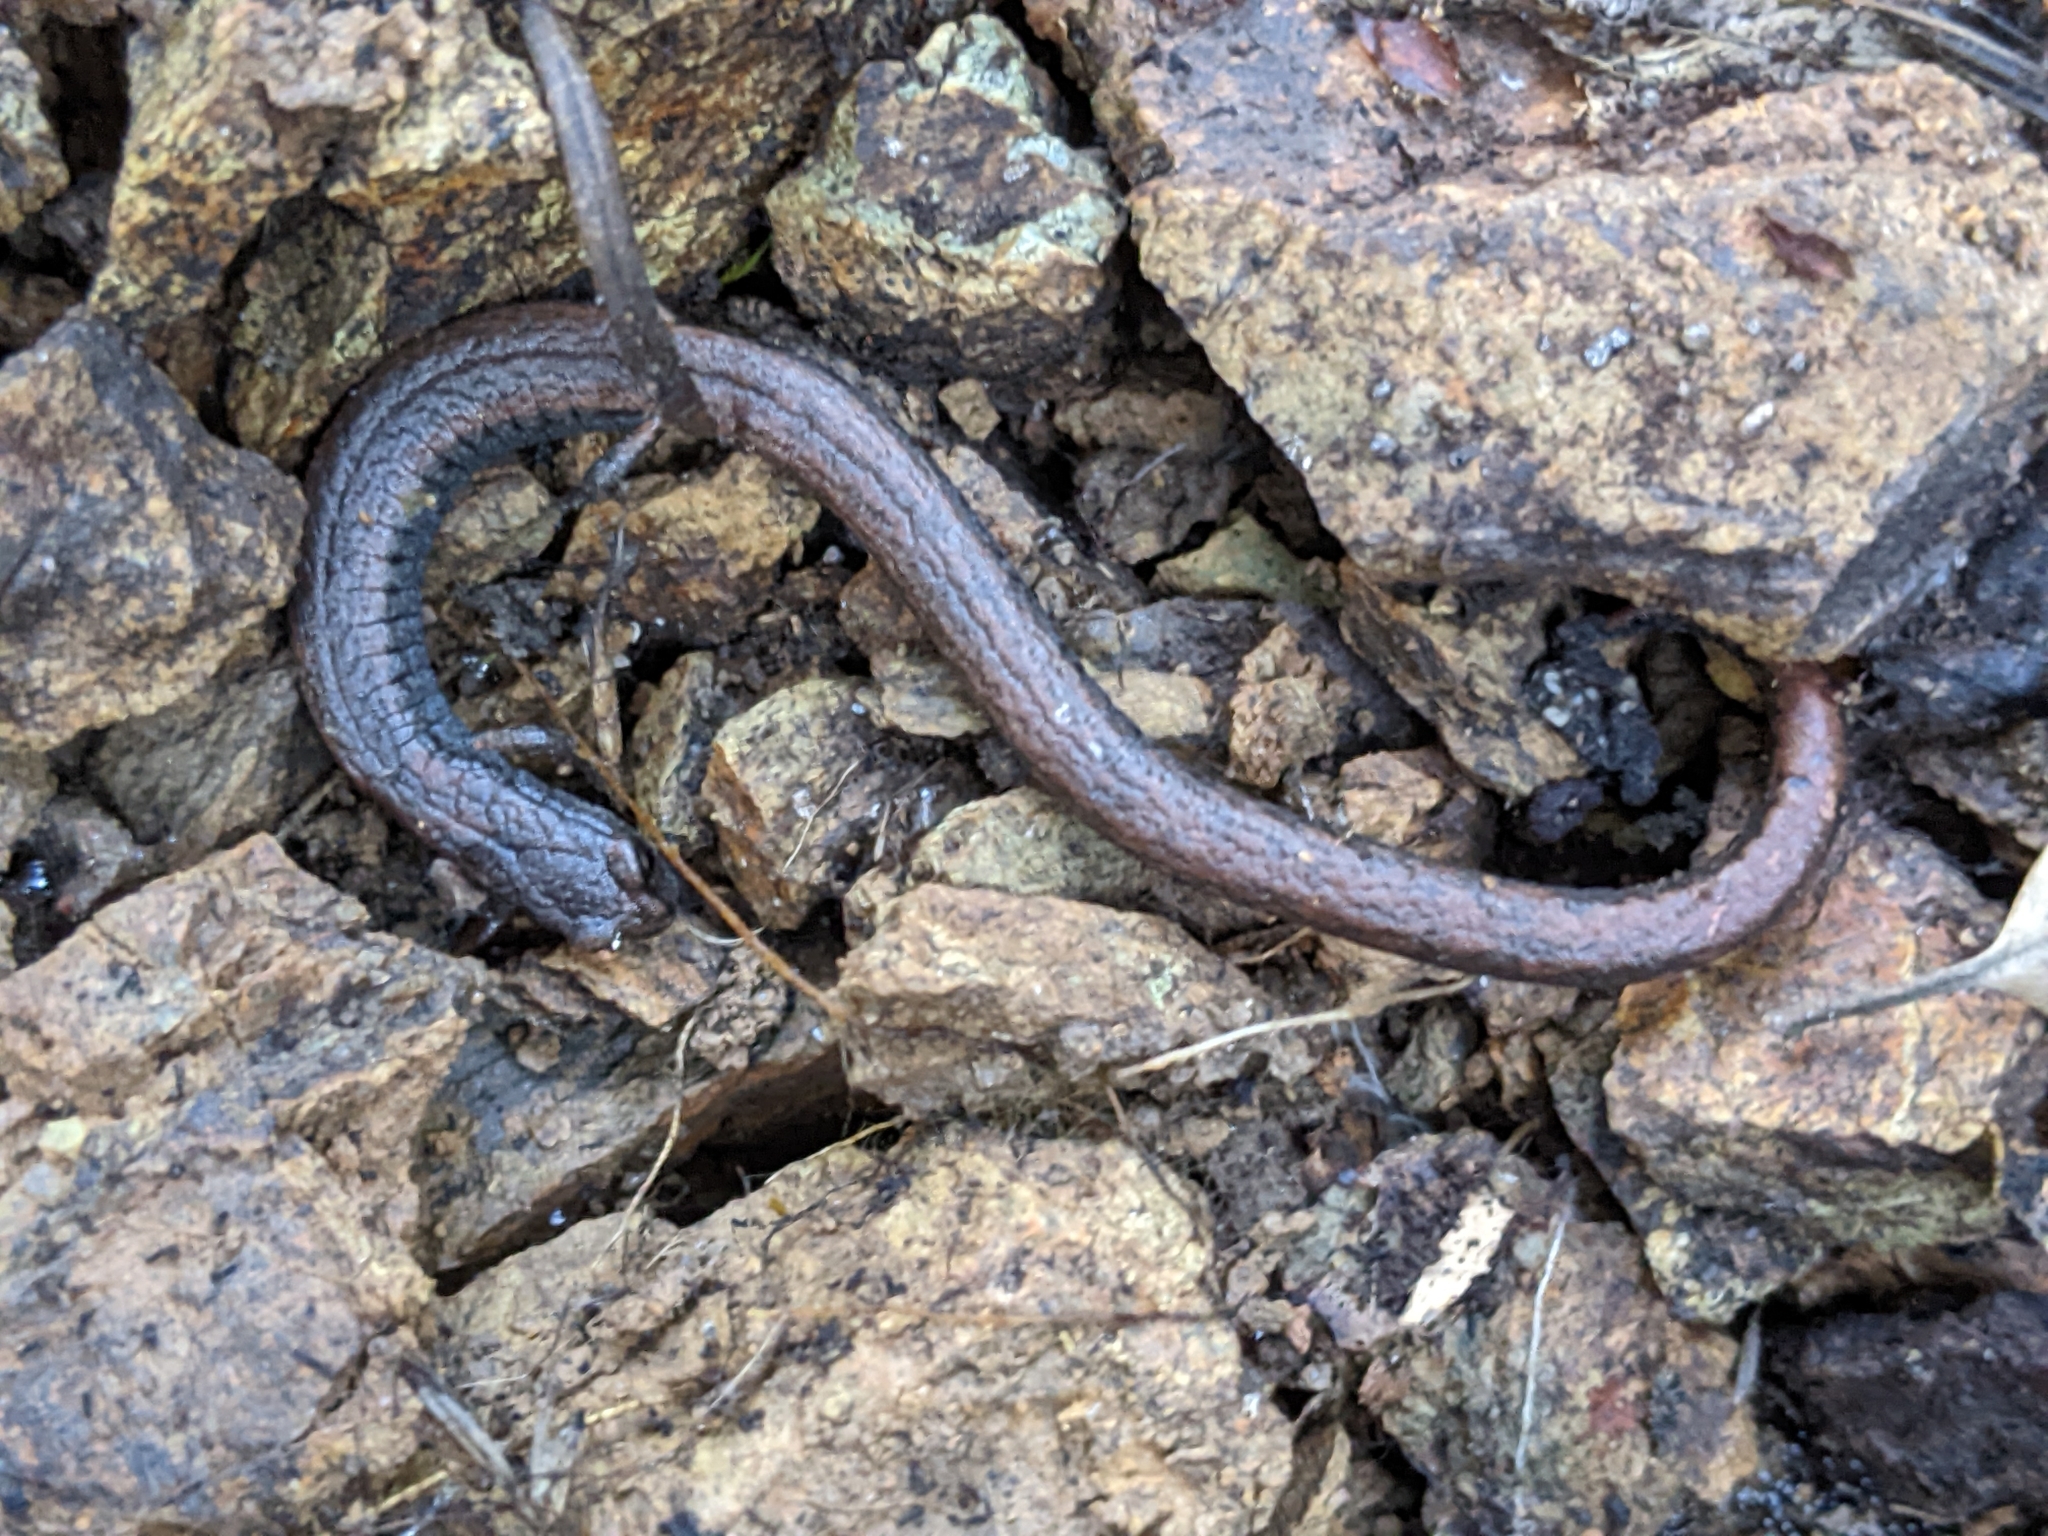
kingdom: Animalia
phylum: Chordata
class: Amphibia
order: Caudata
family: Plethodontidae
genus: Batrachoseps
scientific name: Batrachoseps attenuatus
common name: California slender salamander
